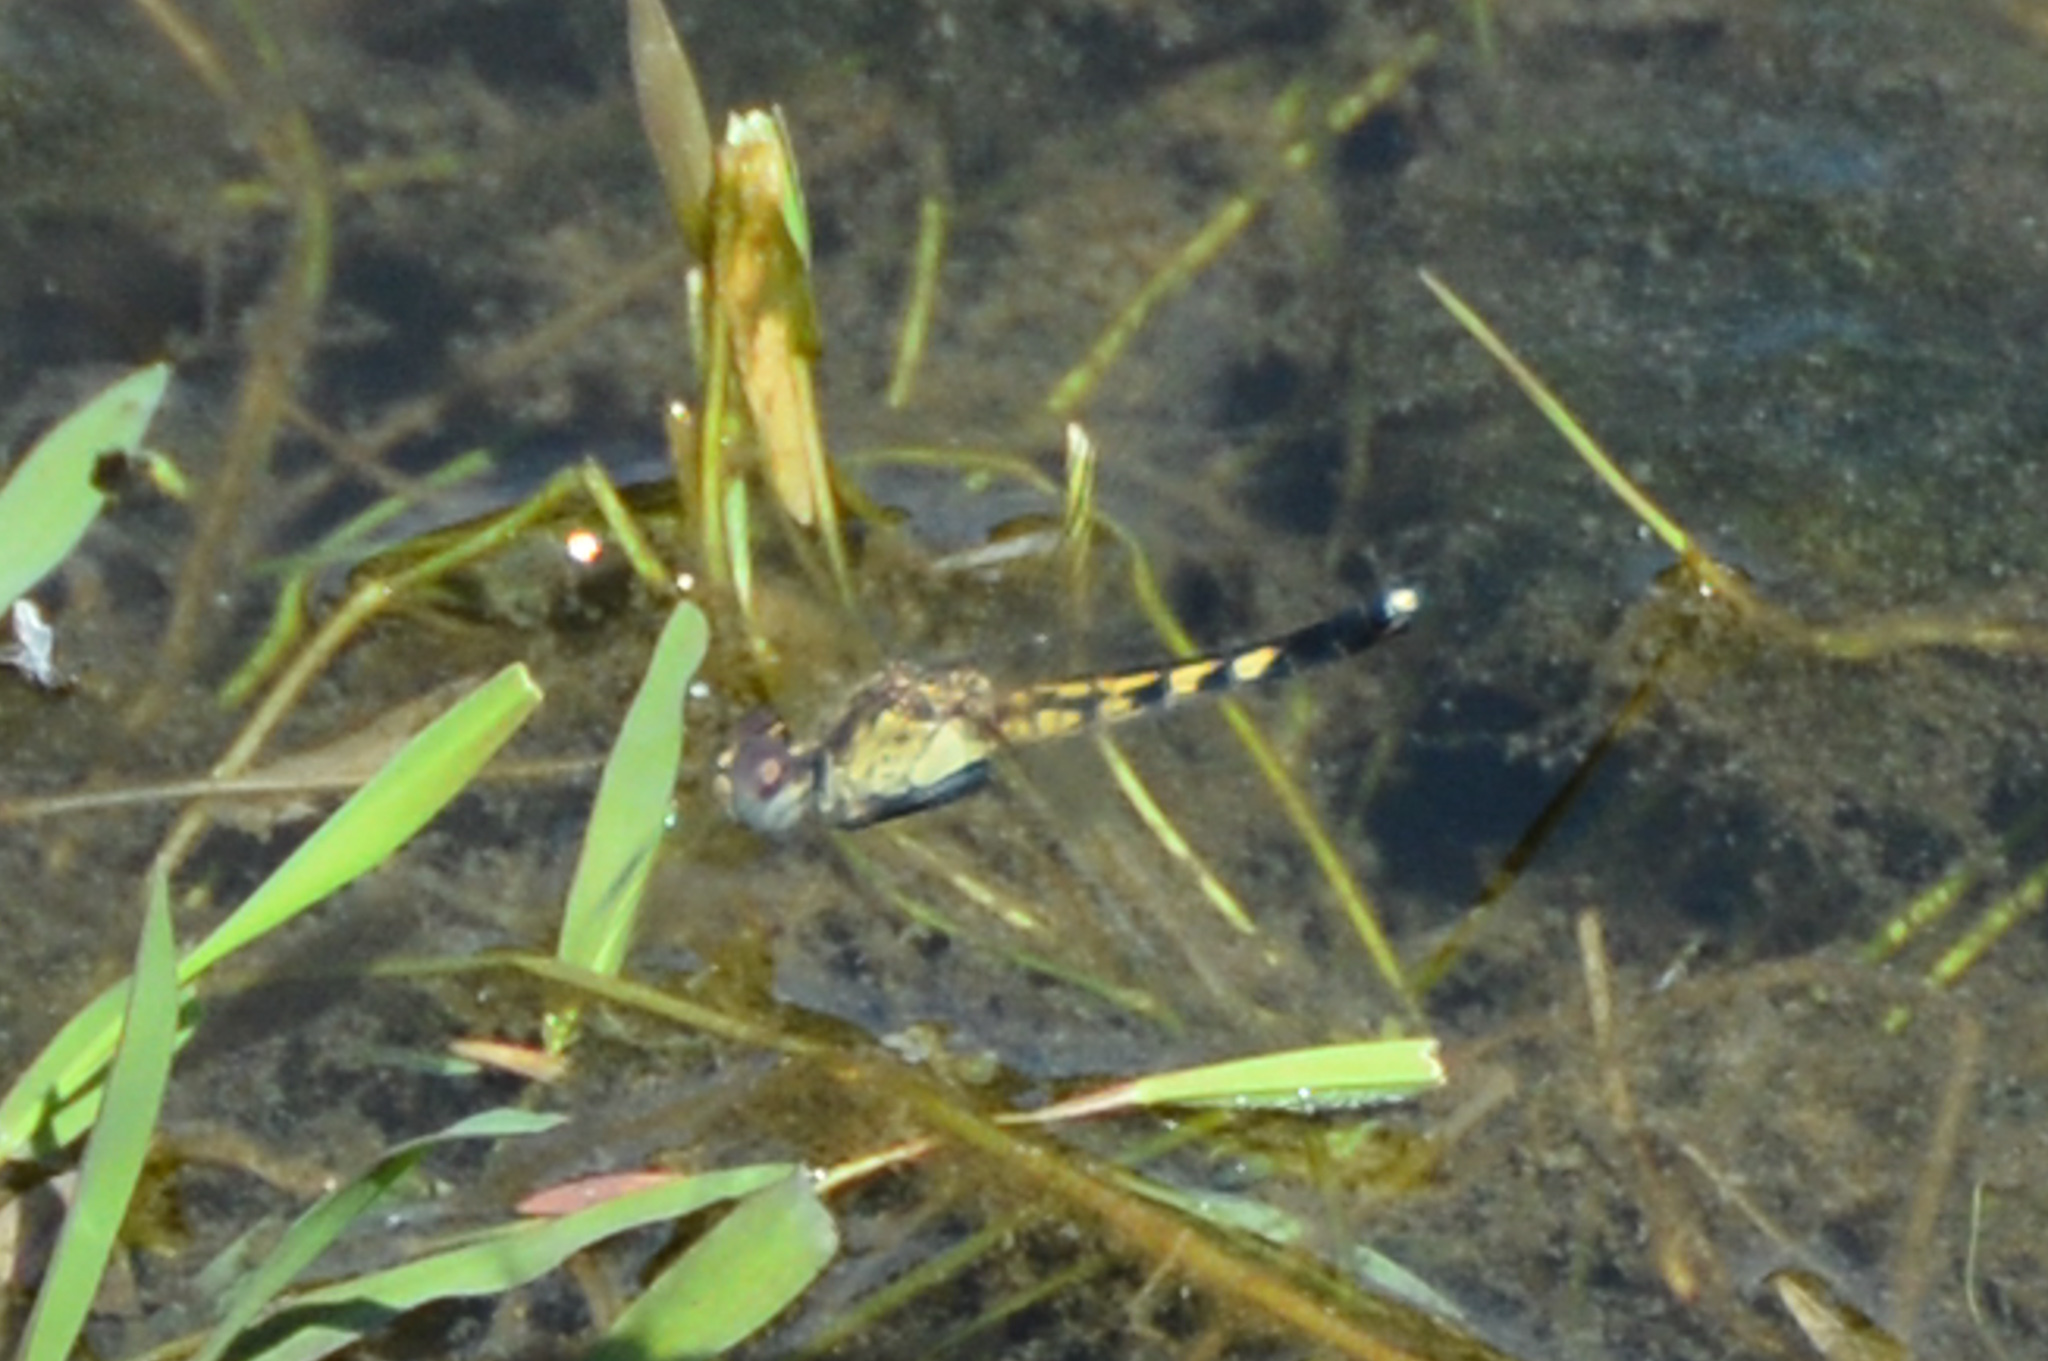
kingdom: Animalia
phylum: Arthropoda
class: Insecta
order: Odonata
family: Libellulidae
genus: Erythrodiplax
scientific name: Erythrodiplax minuscula
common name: Little blue dragonlet
